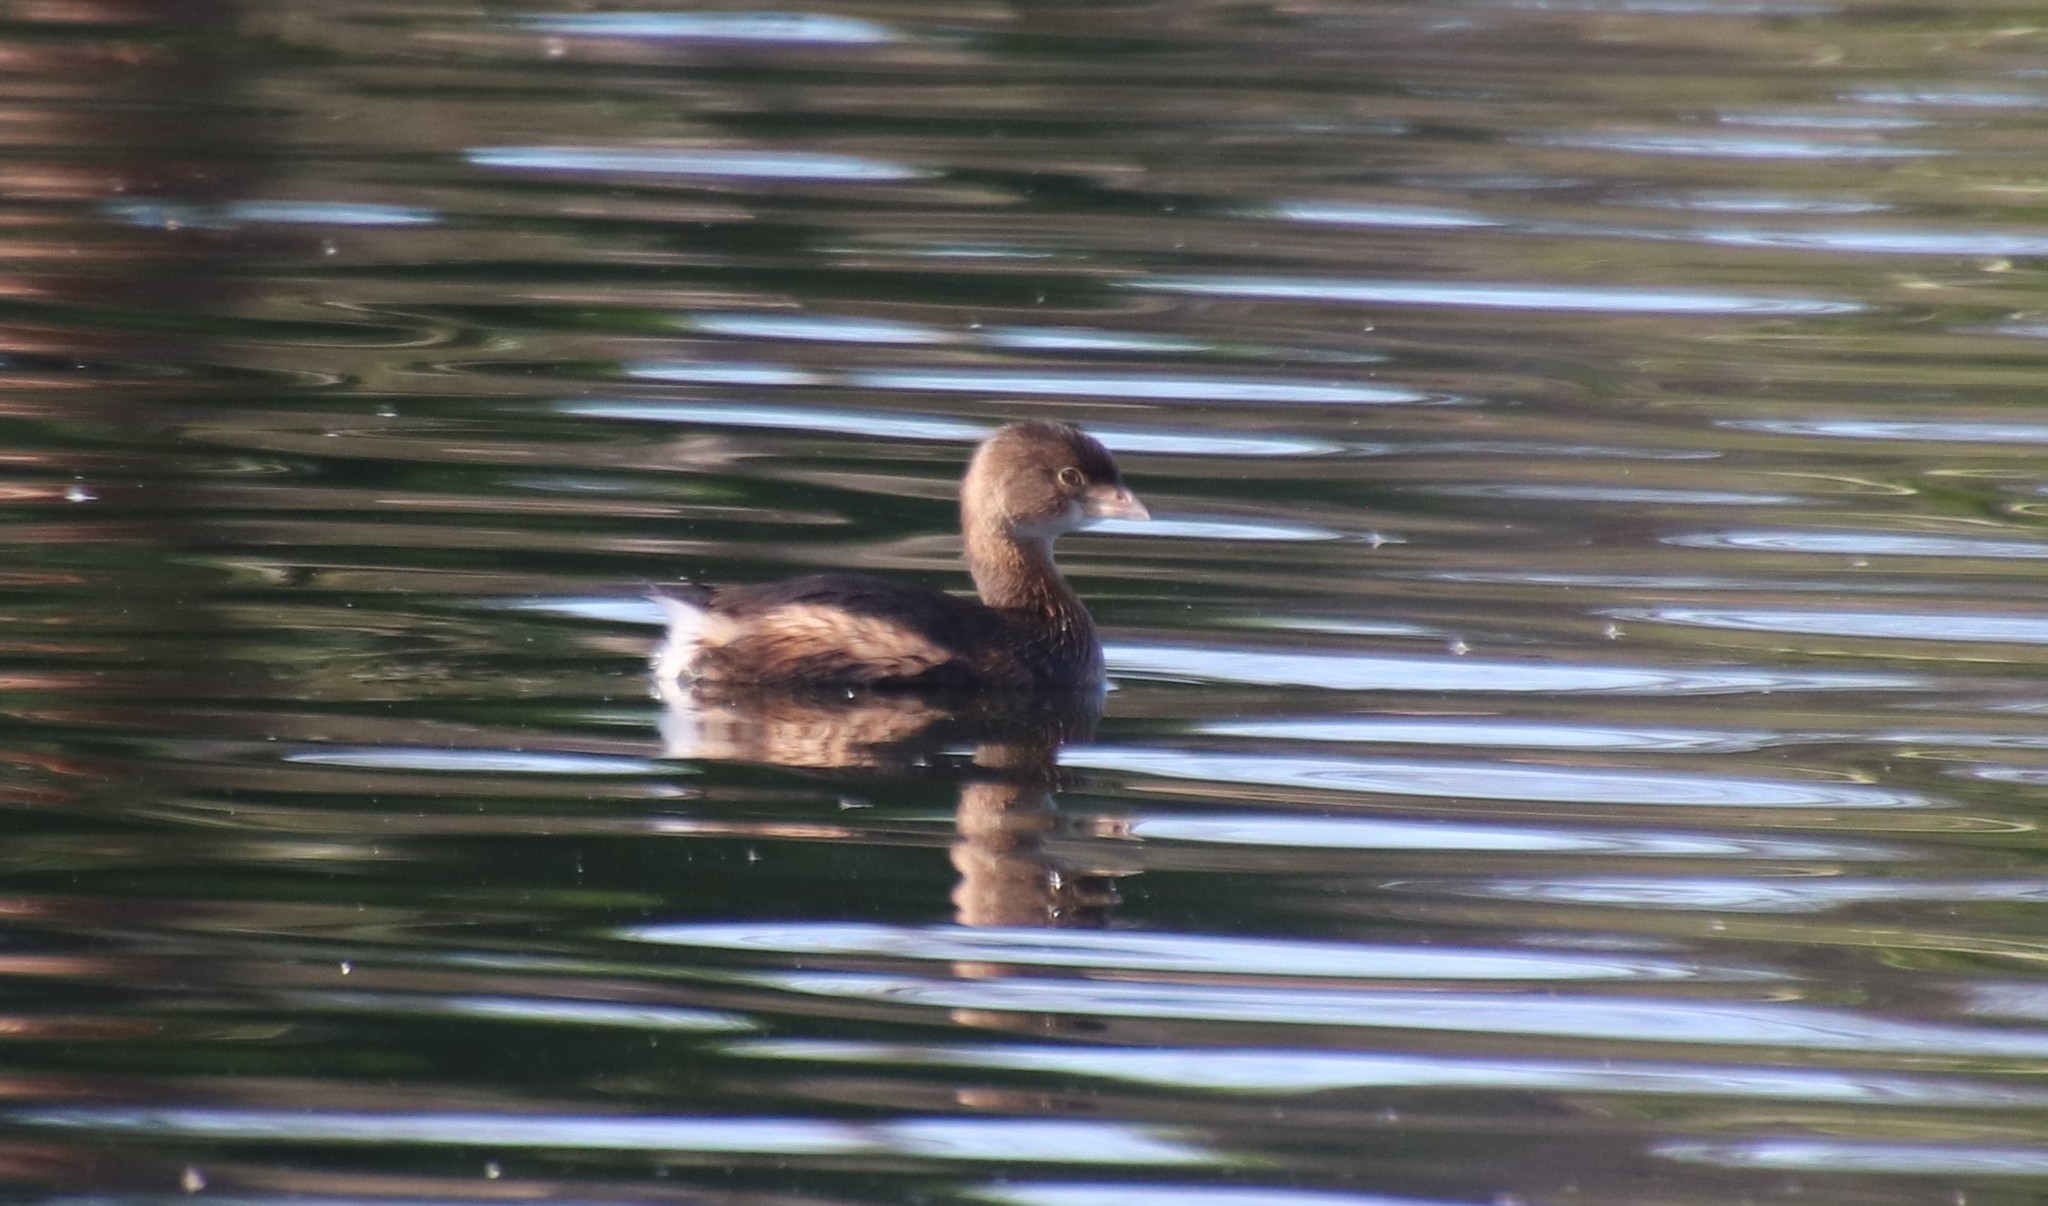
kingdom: Animalia
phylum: Chordata
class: Aves
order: Podicipediformes
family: Podicipedidae
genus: Podilymbus
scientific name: Podilymbus podiceps
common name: Pied-billed grebe
